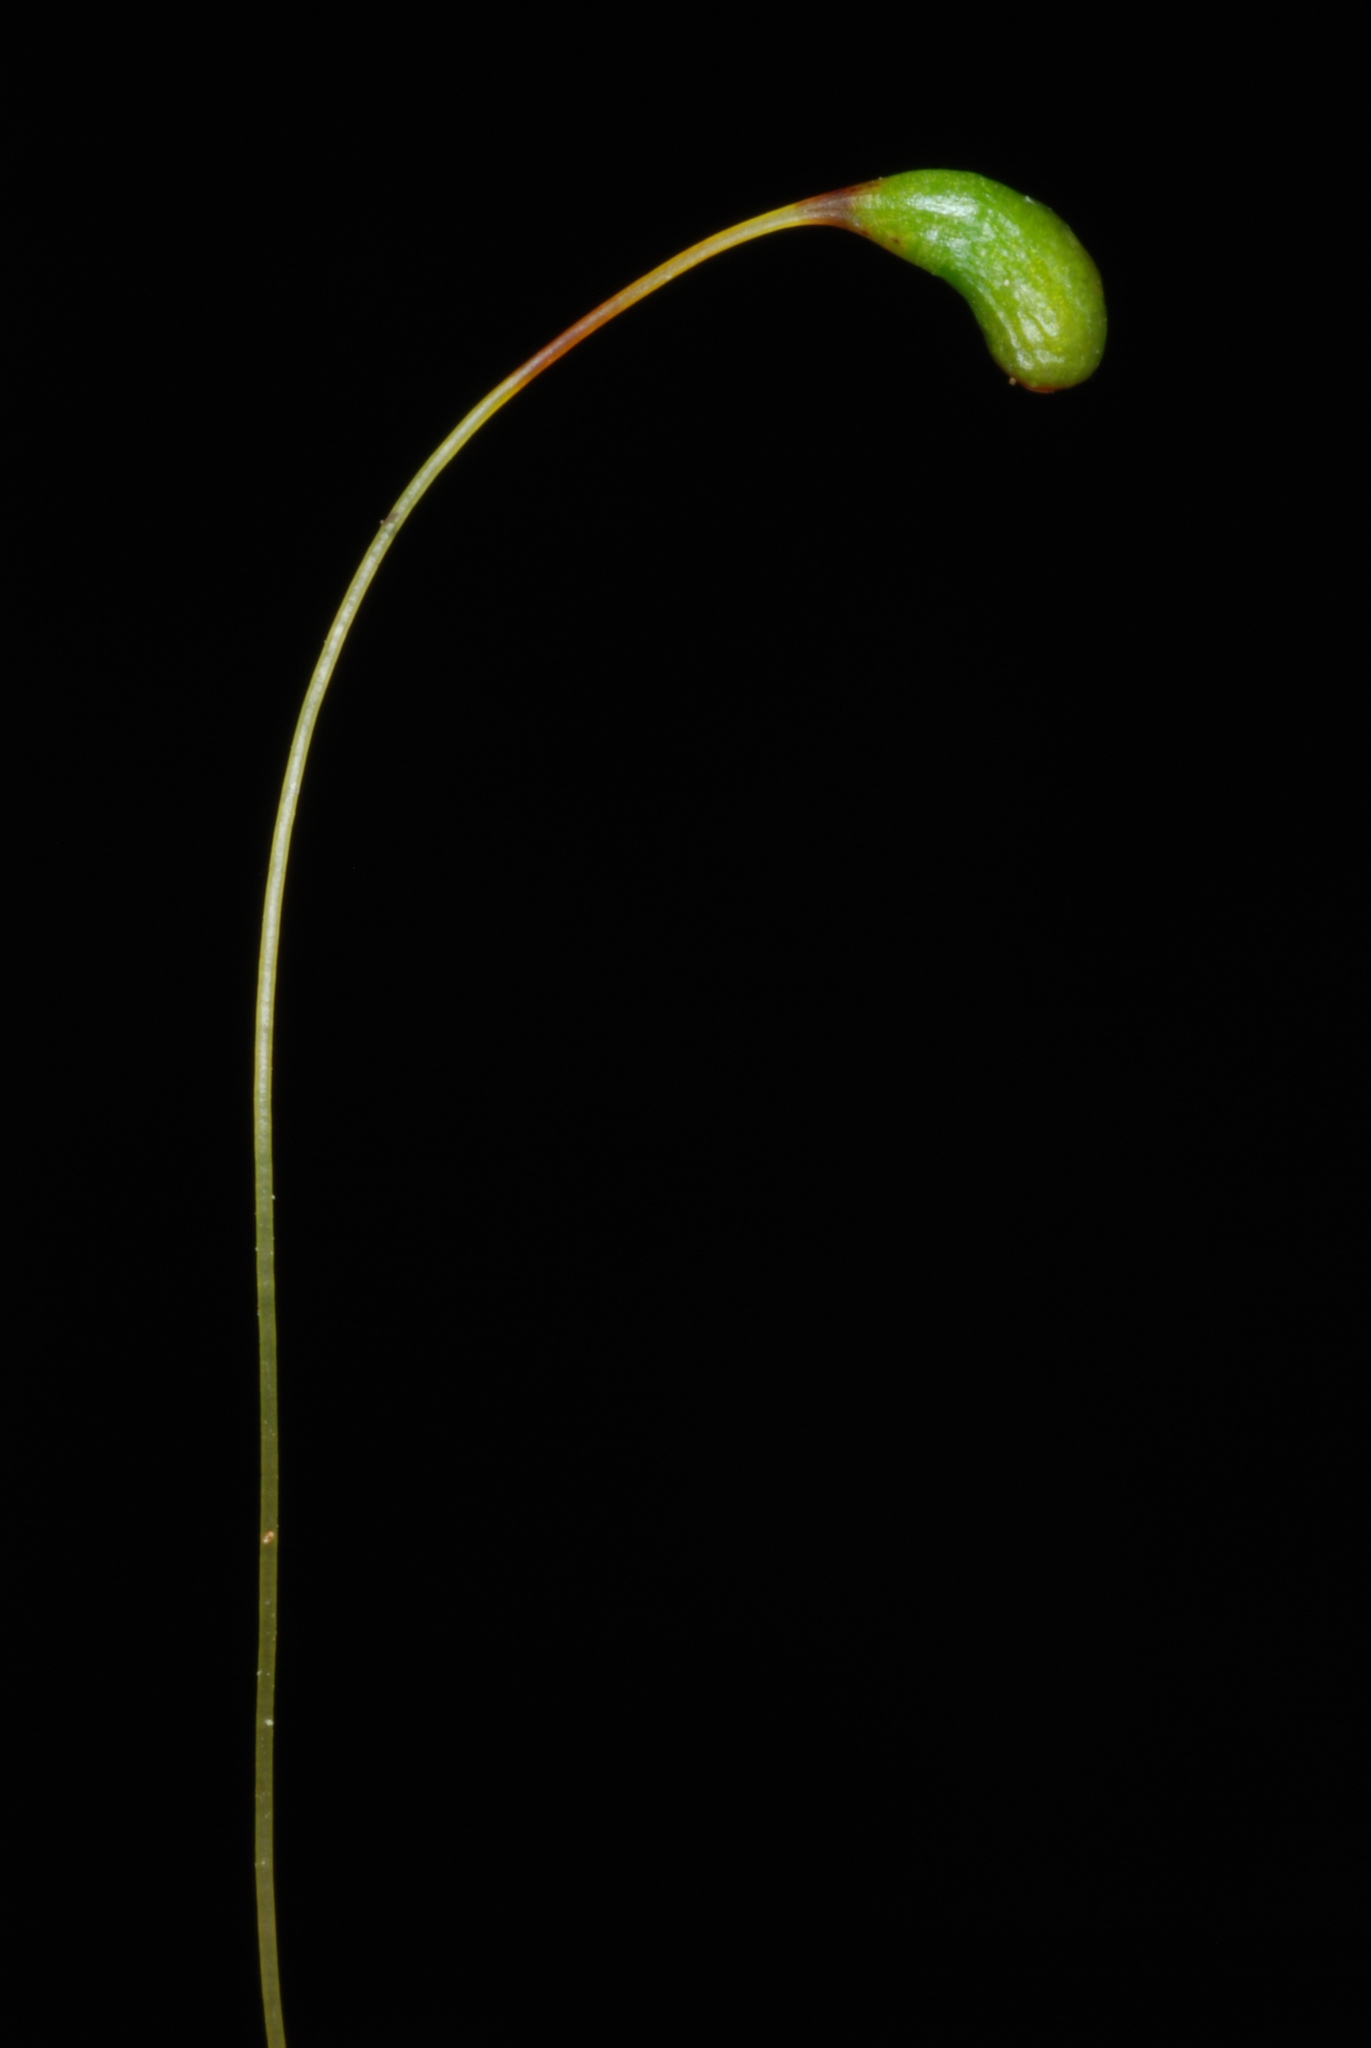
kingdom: Plantae
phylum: Bryophyta
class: Bryopsida
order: Funariales
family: Funariaceae
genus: Funaria
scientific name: Funaria hygrometrica
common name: Common cord moss
